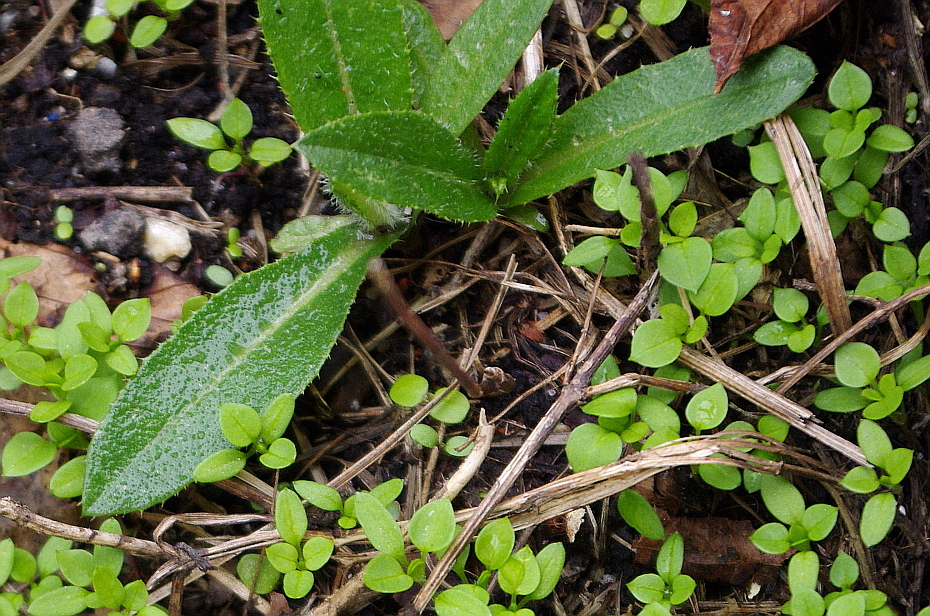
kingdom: Plantae
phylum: Tracheophyta
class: Magnoliopsida
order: Asterales
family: Asteraceae
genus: Cirsium
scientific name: Cirsium arvense
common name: Creeping thistle
